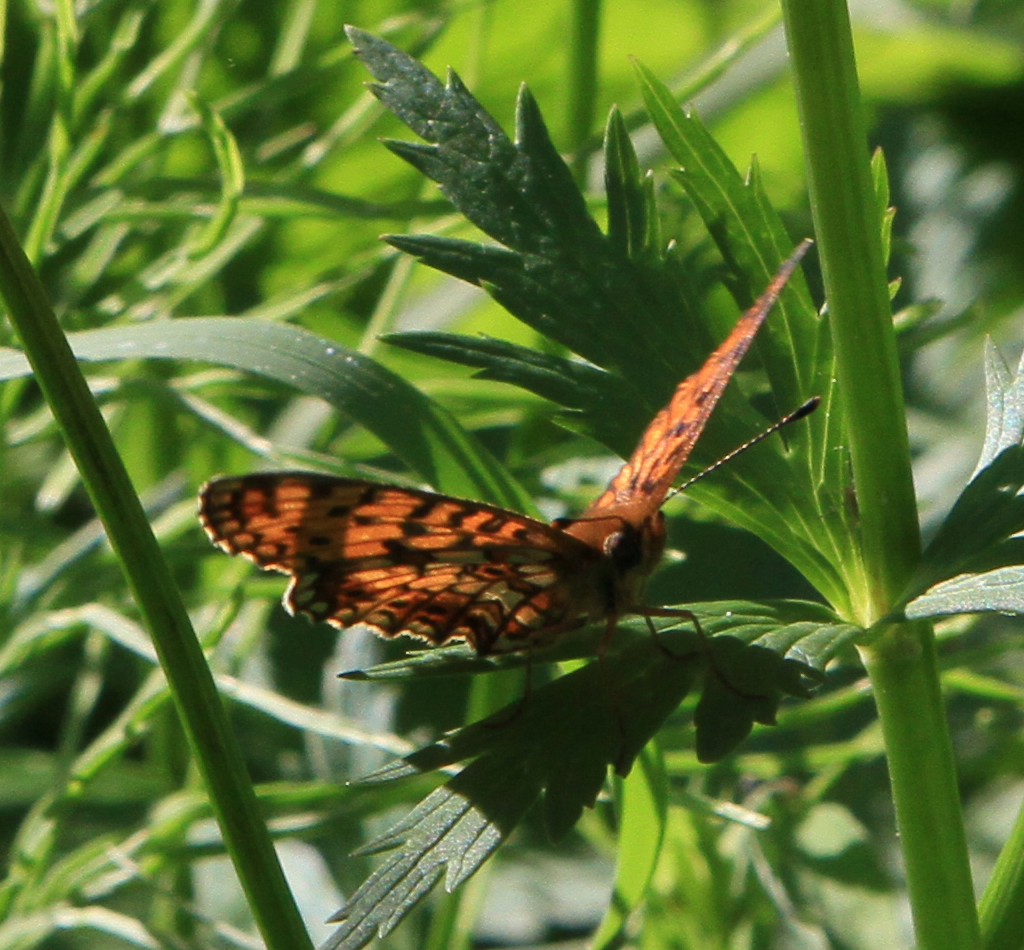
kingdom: Animalia
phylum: Arthropoda
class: Insecta
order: Lepidoptera
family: Nymphalidae
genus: Boloria
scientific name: Boloria selene
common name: Small pearl-bordered fritillary
